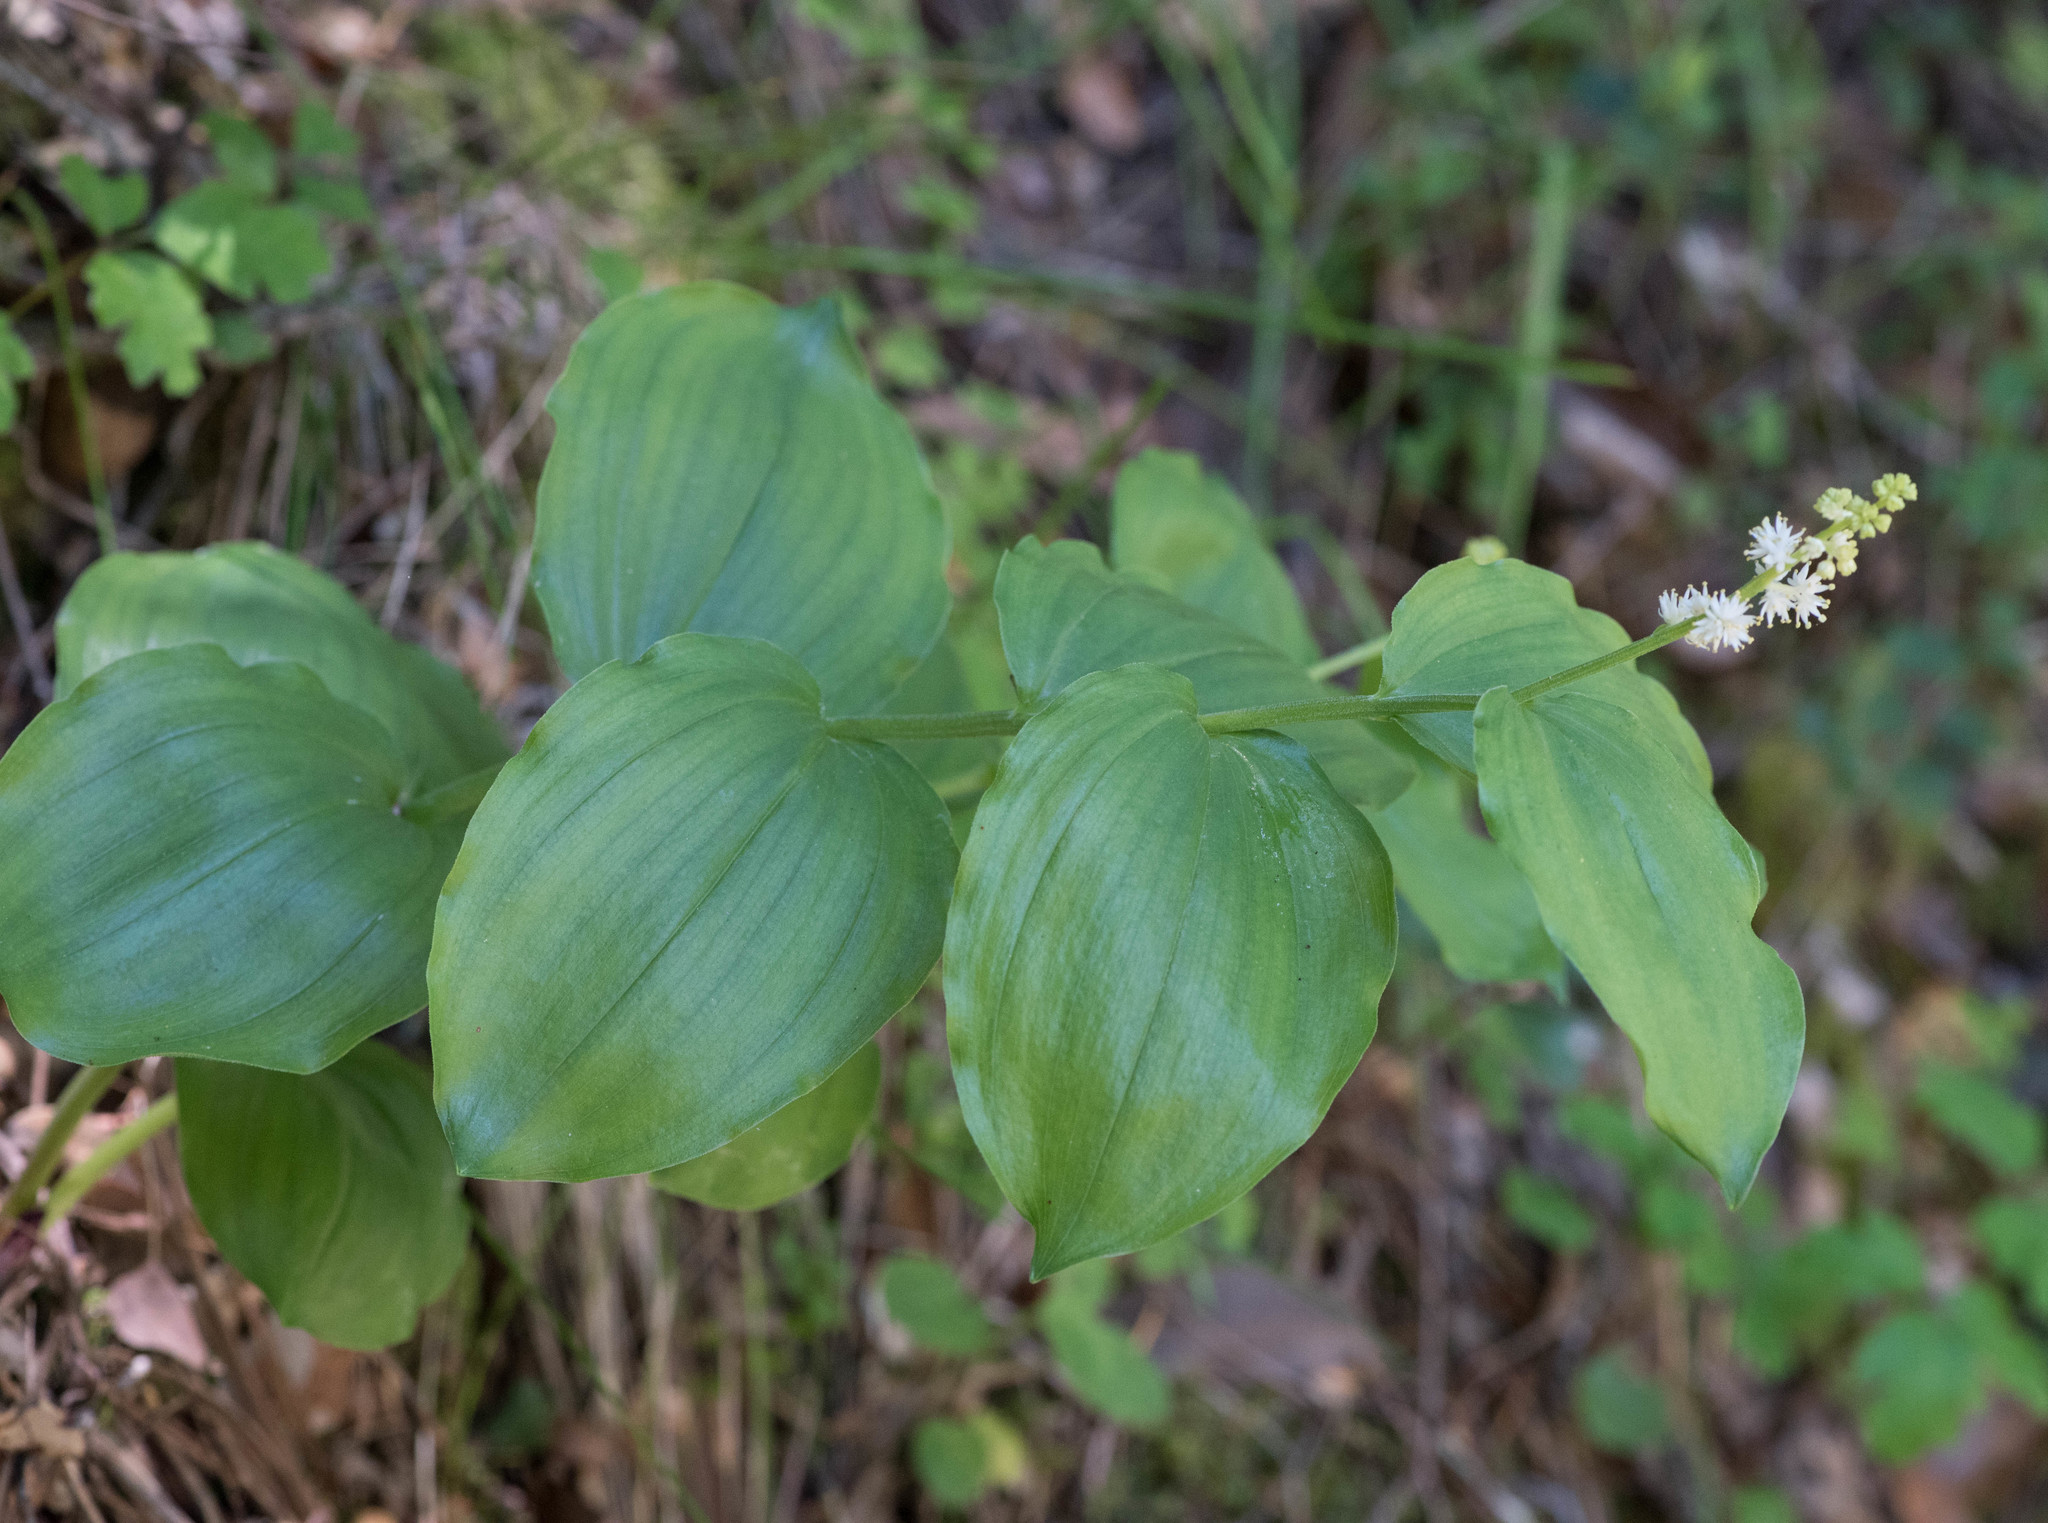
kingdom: Plantae
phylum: Tracheophyta
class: Liliopsida
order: Asparagales
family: Asparagaceae
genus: Maianthemum
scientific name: Maianthemum racemosum
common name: False spikenard
